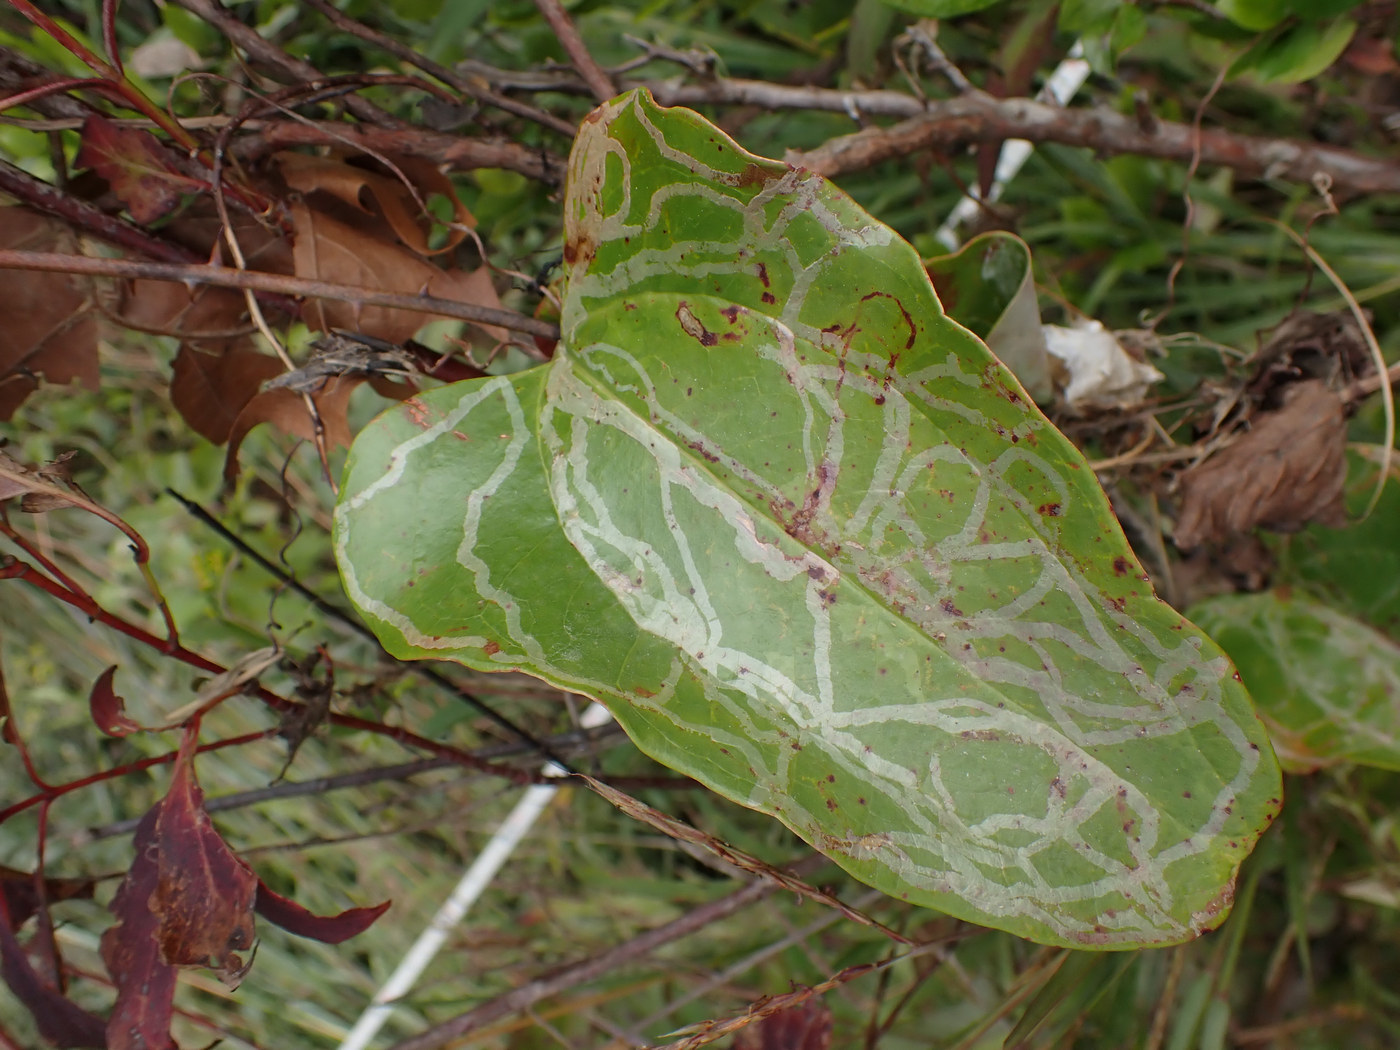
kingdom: Animalia
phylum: Arthropoda
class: Insecta
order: Lepidoptera
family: Gracillariidae
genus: Marmara
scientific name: Marmara smilacisella
